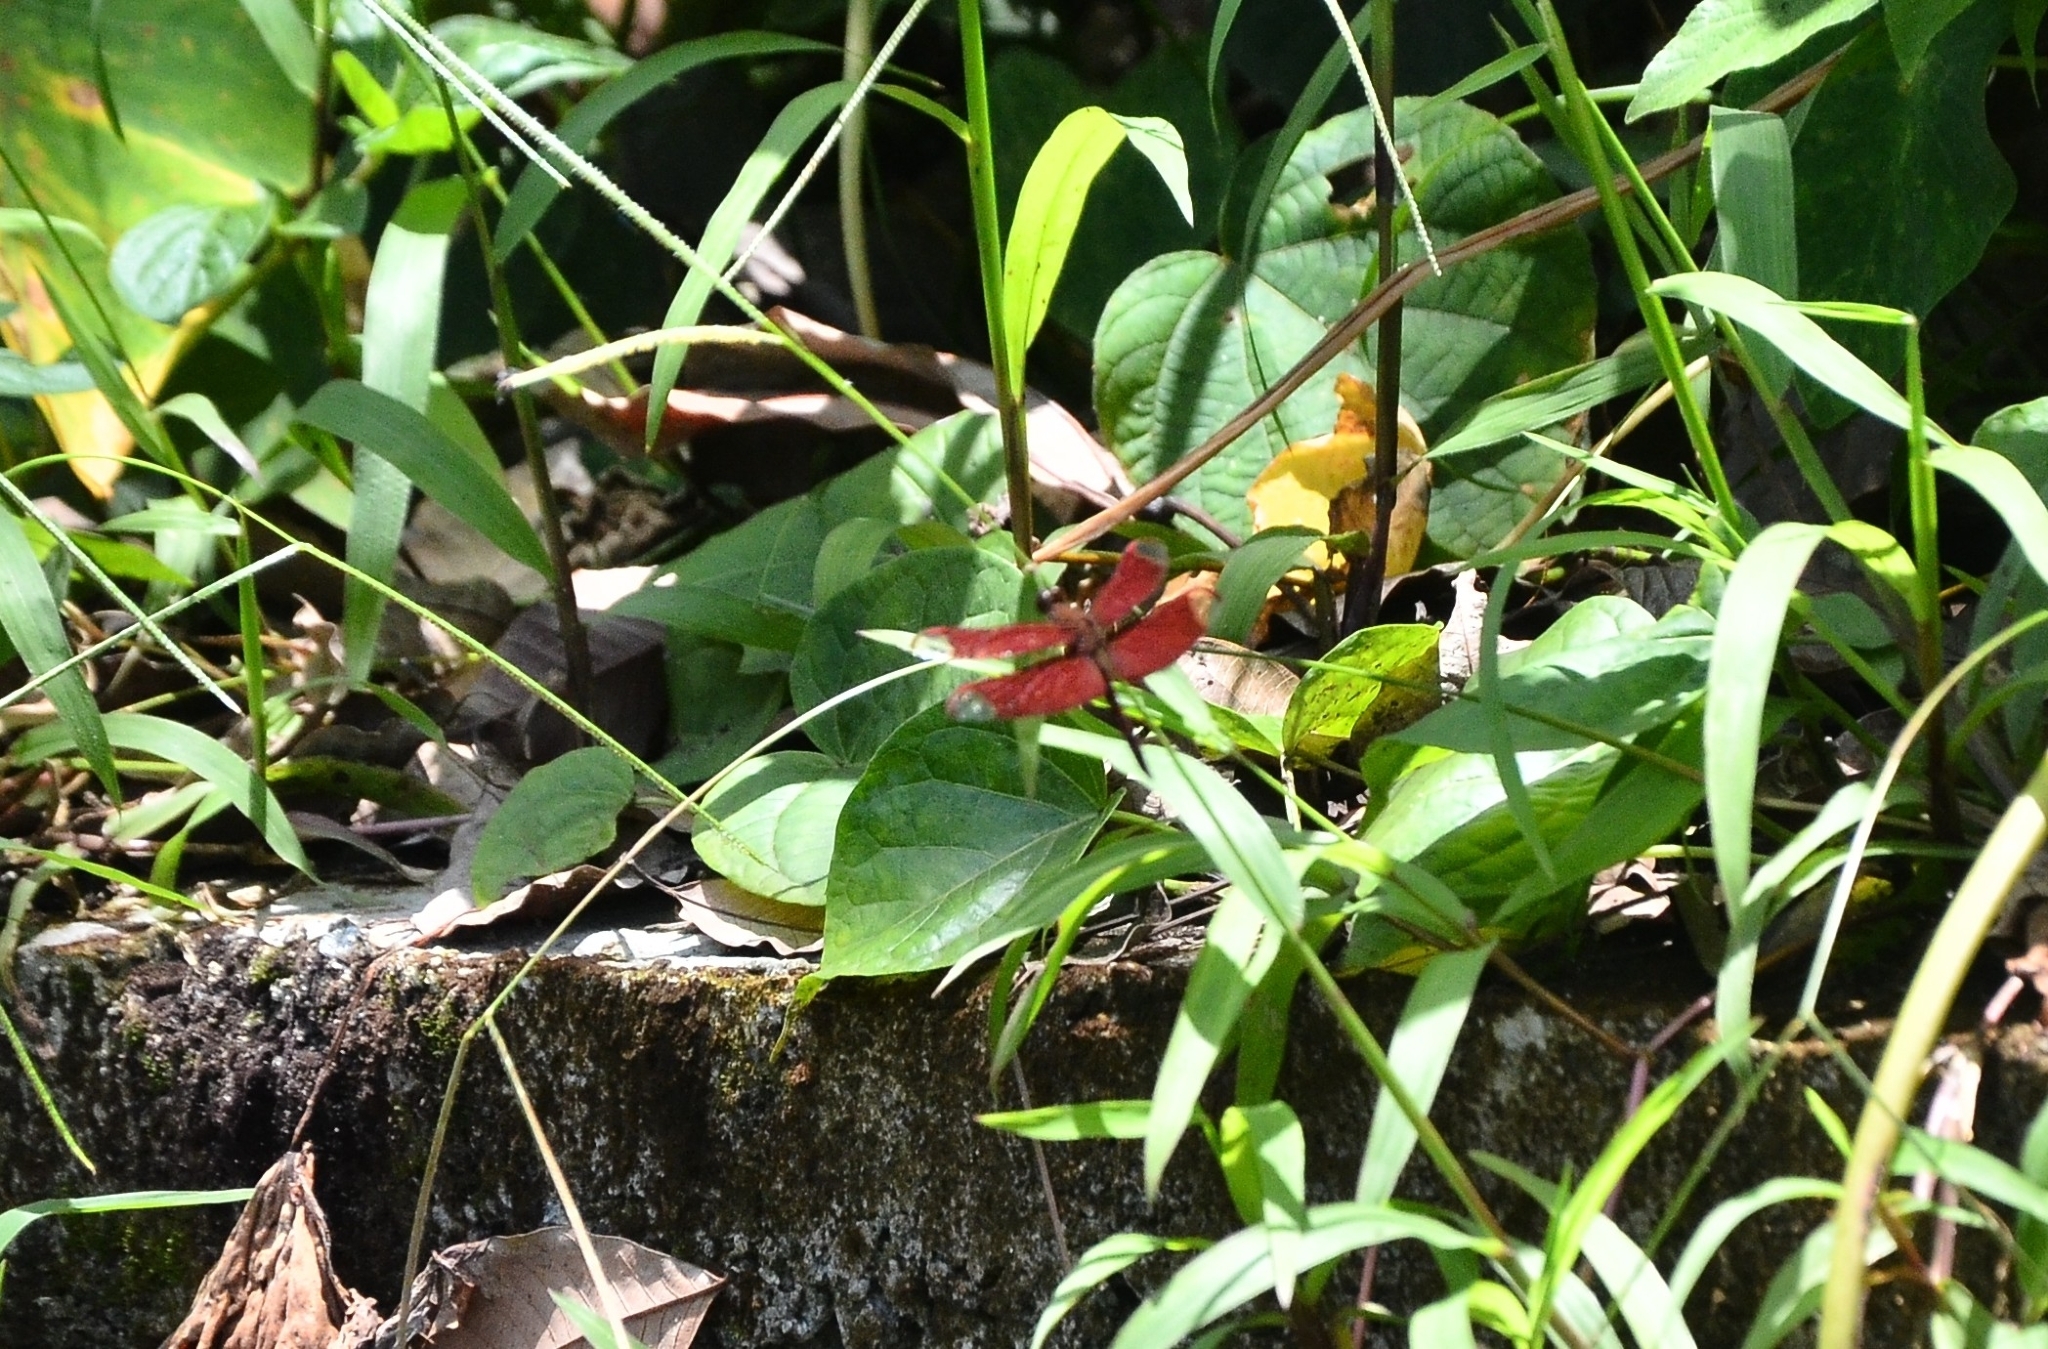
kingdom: Animalia
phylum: Arthropoda
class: Insecta
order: Odonata
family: Libellulidae
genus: Neurothemis
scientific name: Neurothemis fulvia
